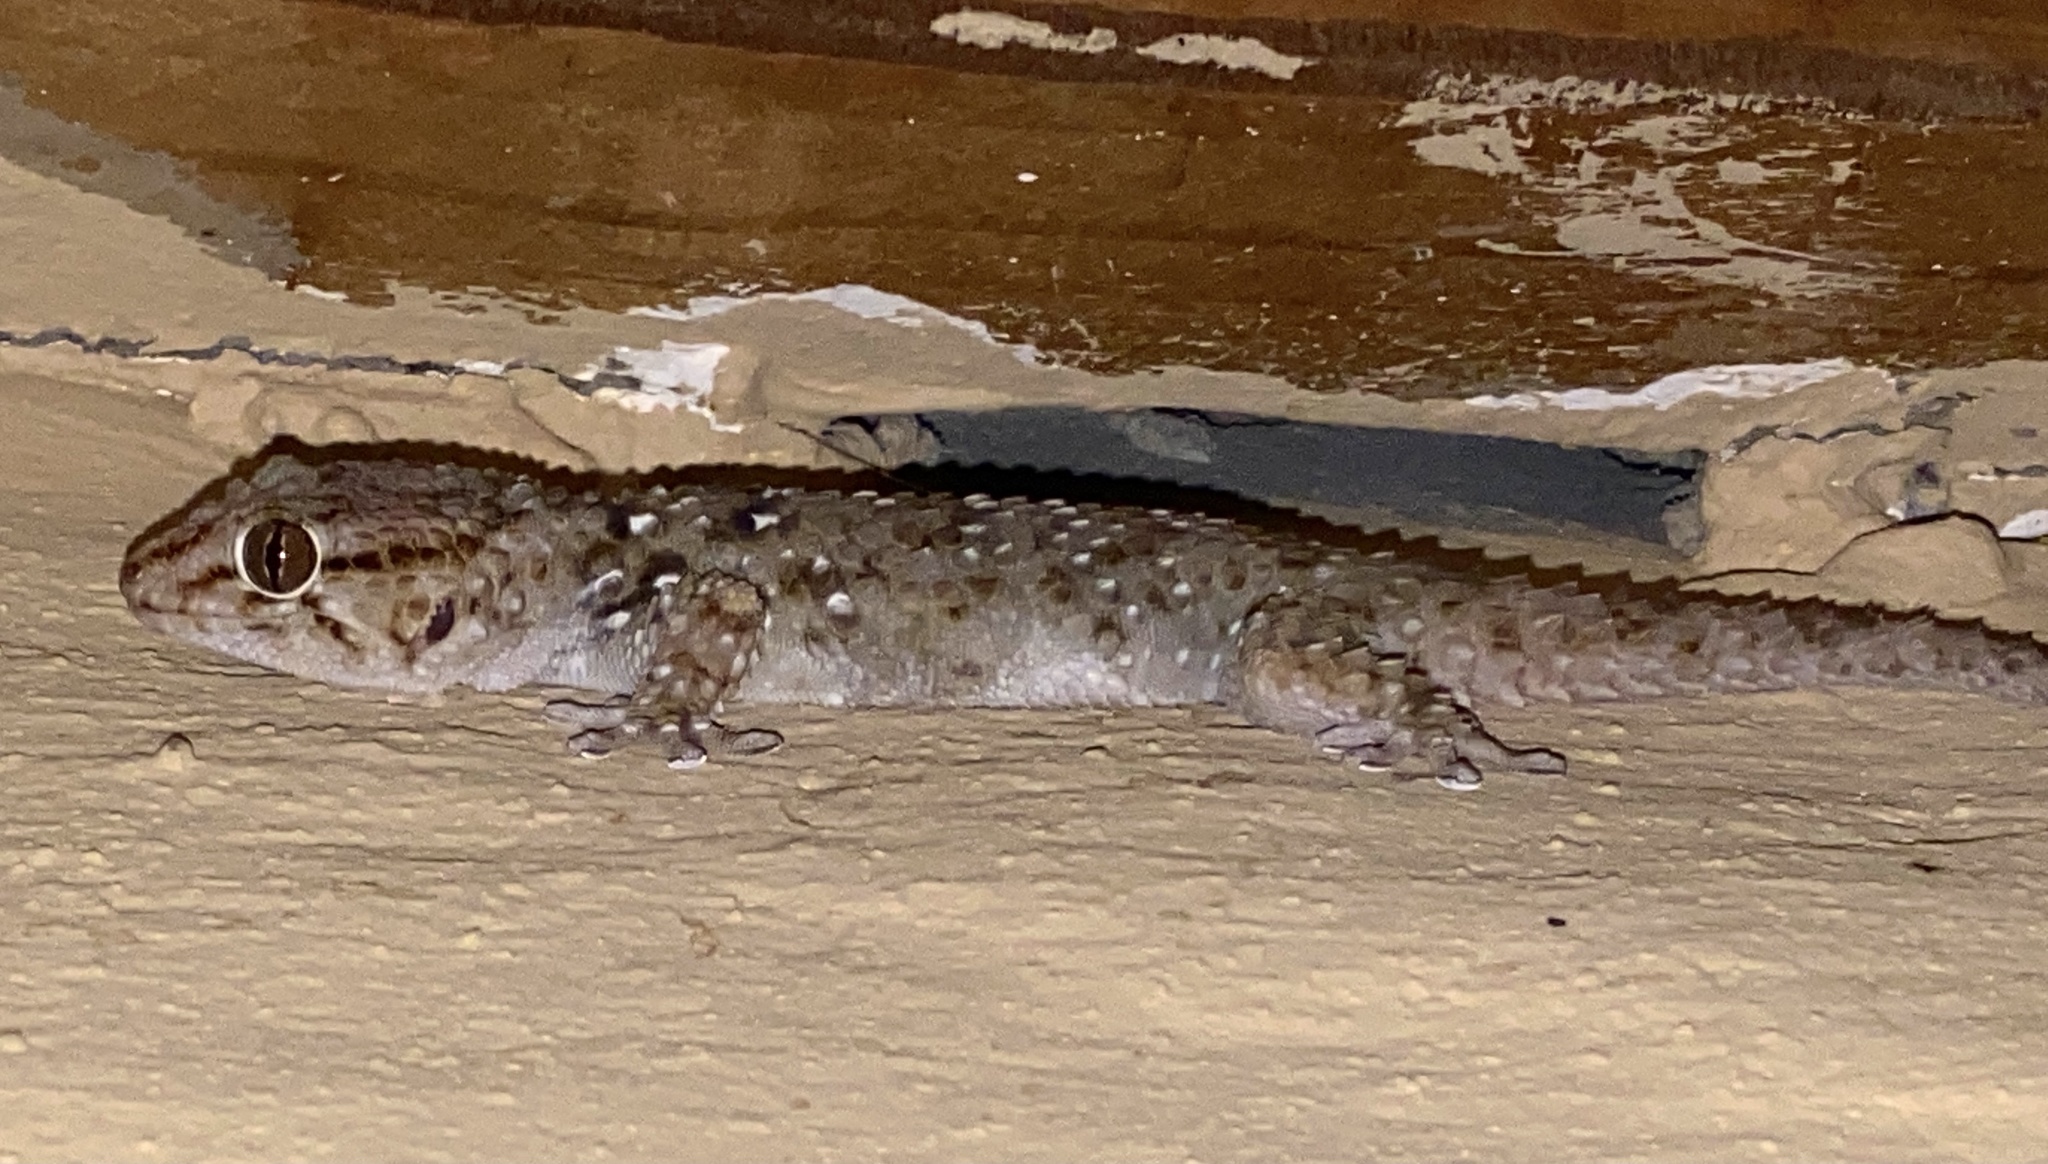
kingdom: Animalia
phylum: Chordata
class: Squamata
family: Gekkonidae
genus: Chondrodactylus
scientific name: Chondrodactylus bibronii
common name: Bibron's gecko
